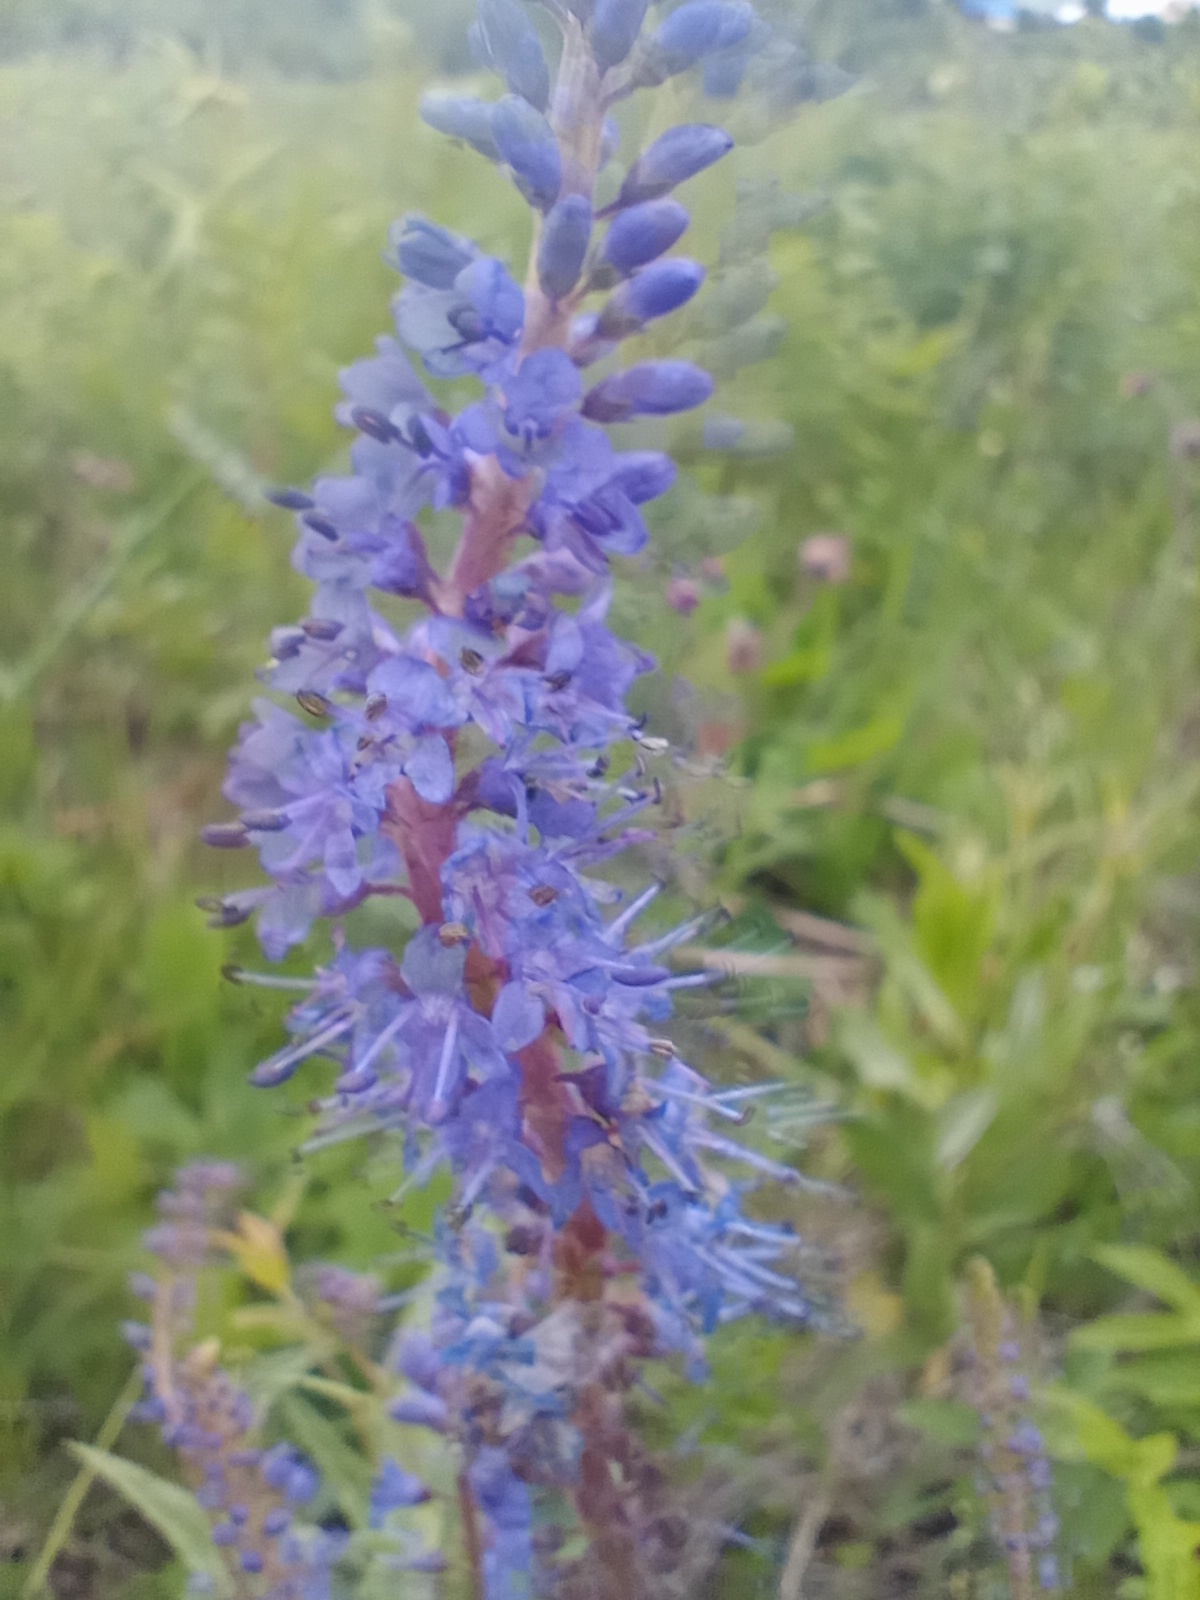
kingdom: Plantae
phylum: Tracheophyta
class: Magnoliopsida
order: Lamiales
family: Plantaginaceae
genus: Veronica
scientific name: Veronica longifolia
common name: Garden speedwell
